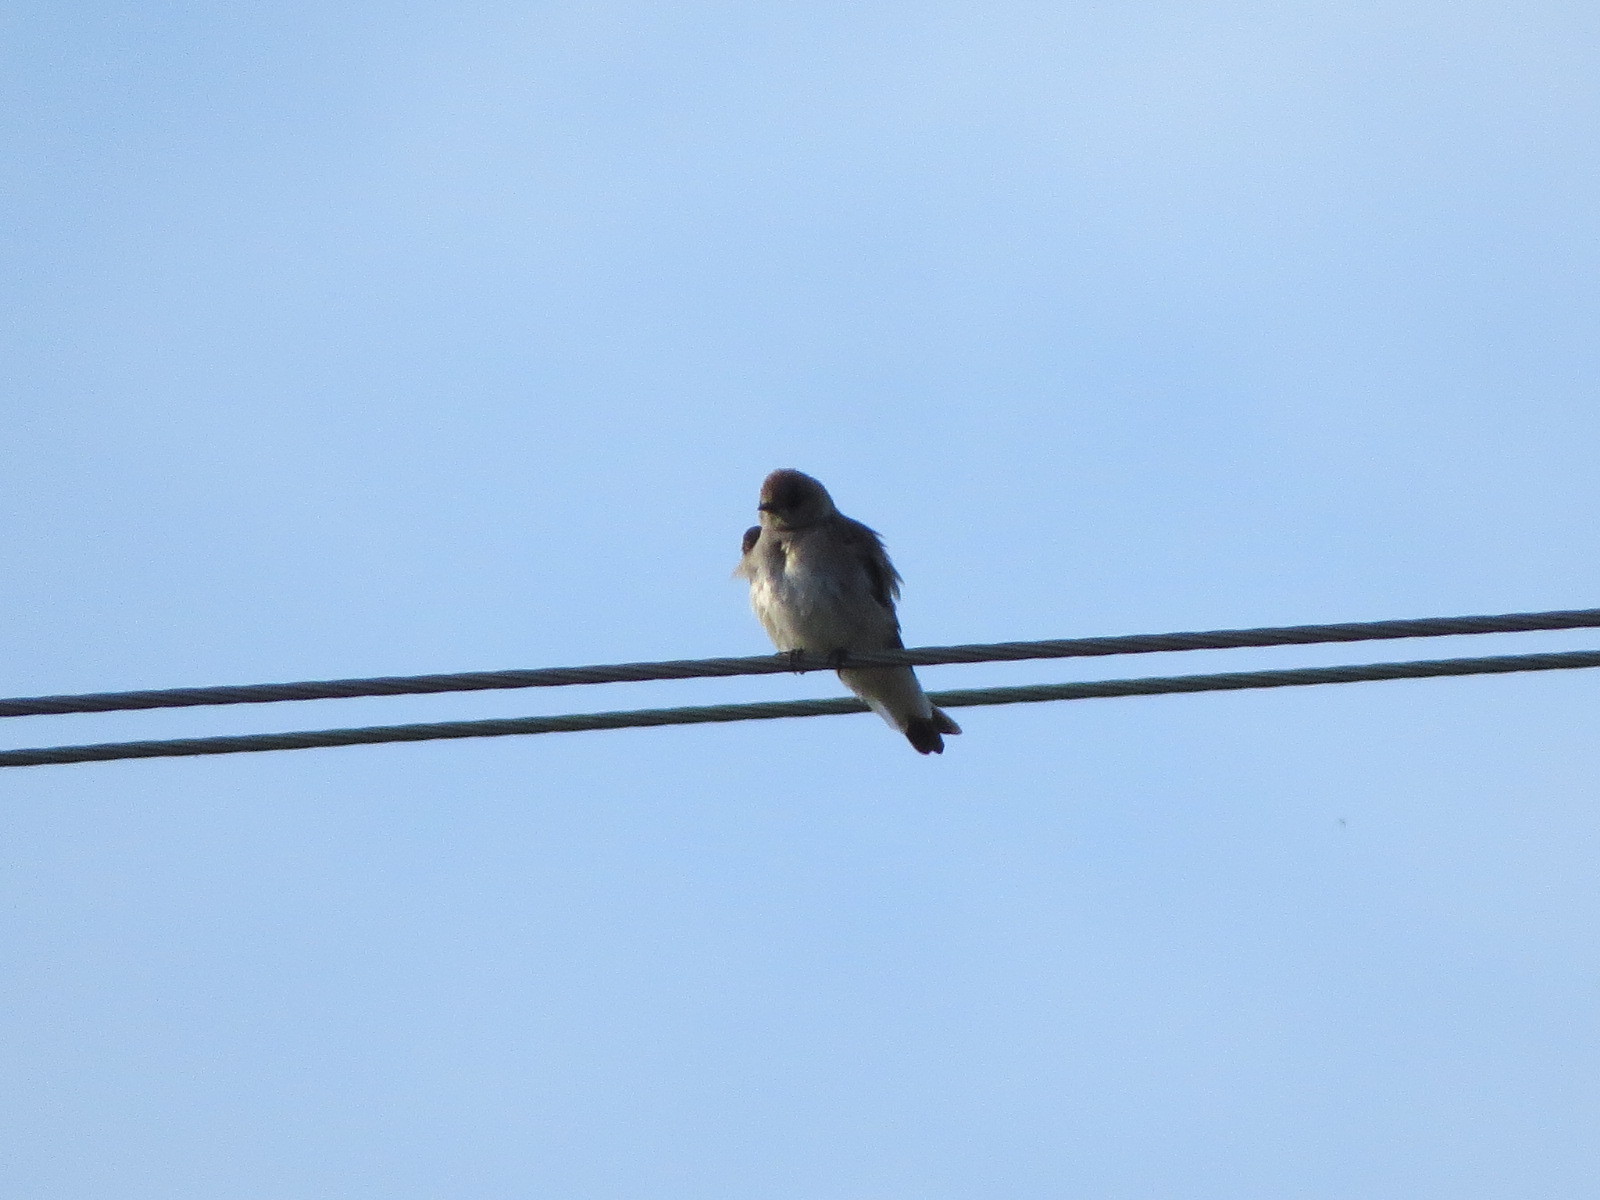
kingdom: Animalia
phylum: Chordata
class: Aves
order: Passeriformes
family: Hirundinidae
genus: Stelgidopteryx
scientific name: Stelgidopteryx serripennis
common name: Northern rough-winged swallow
